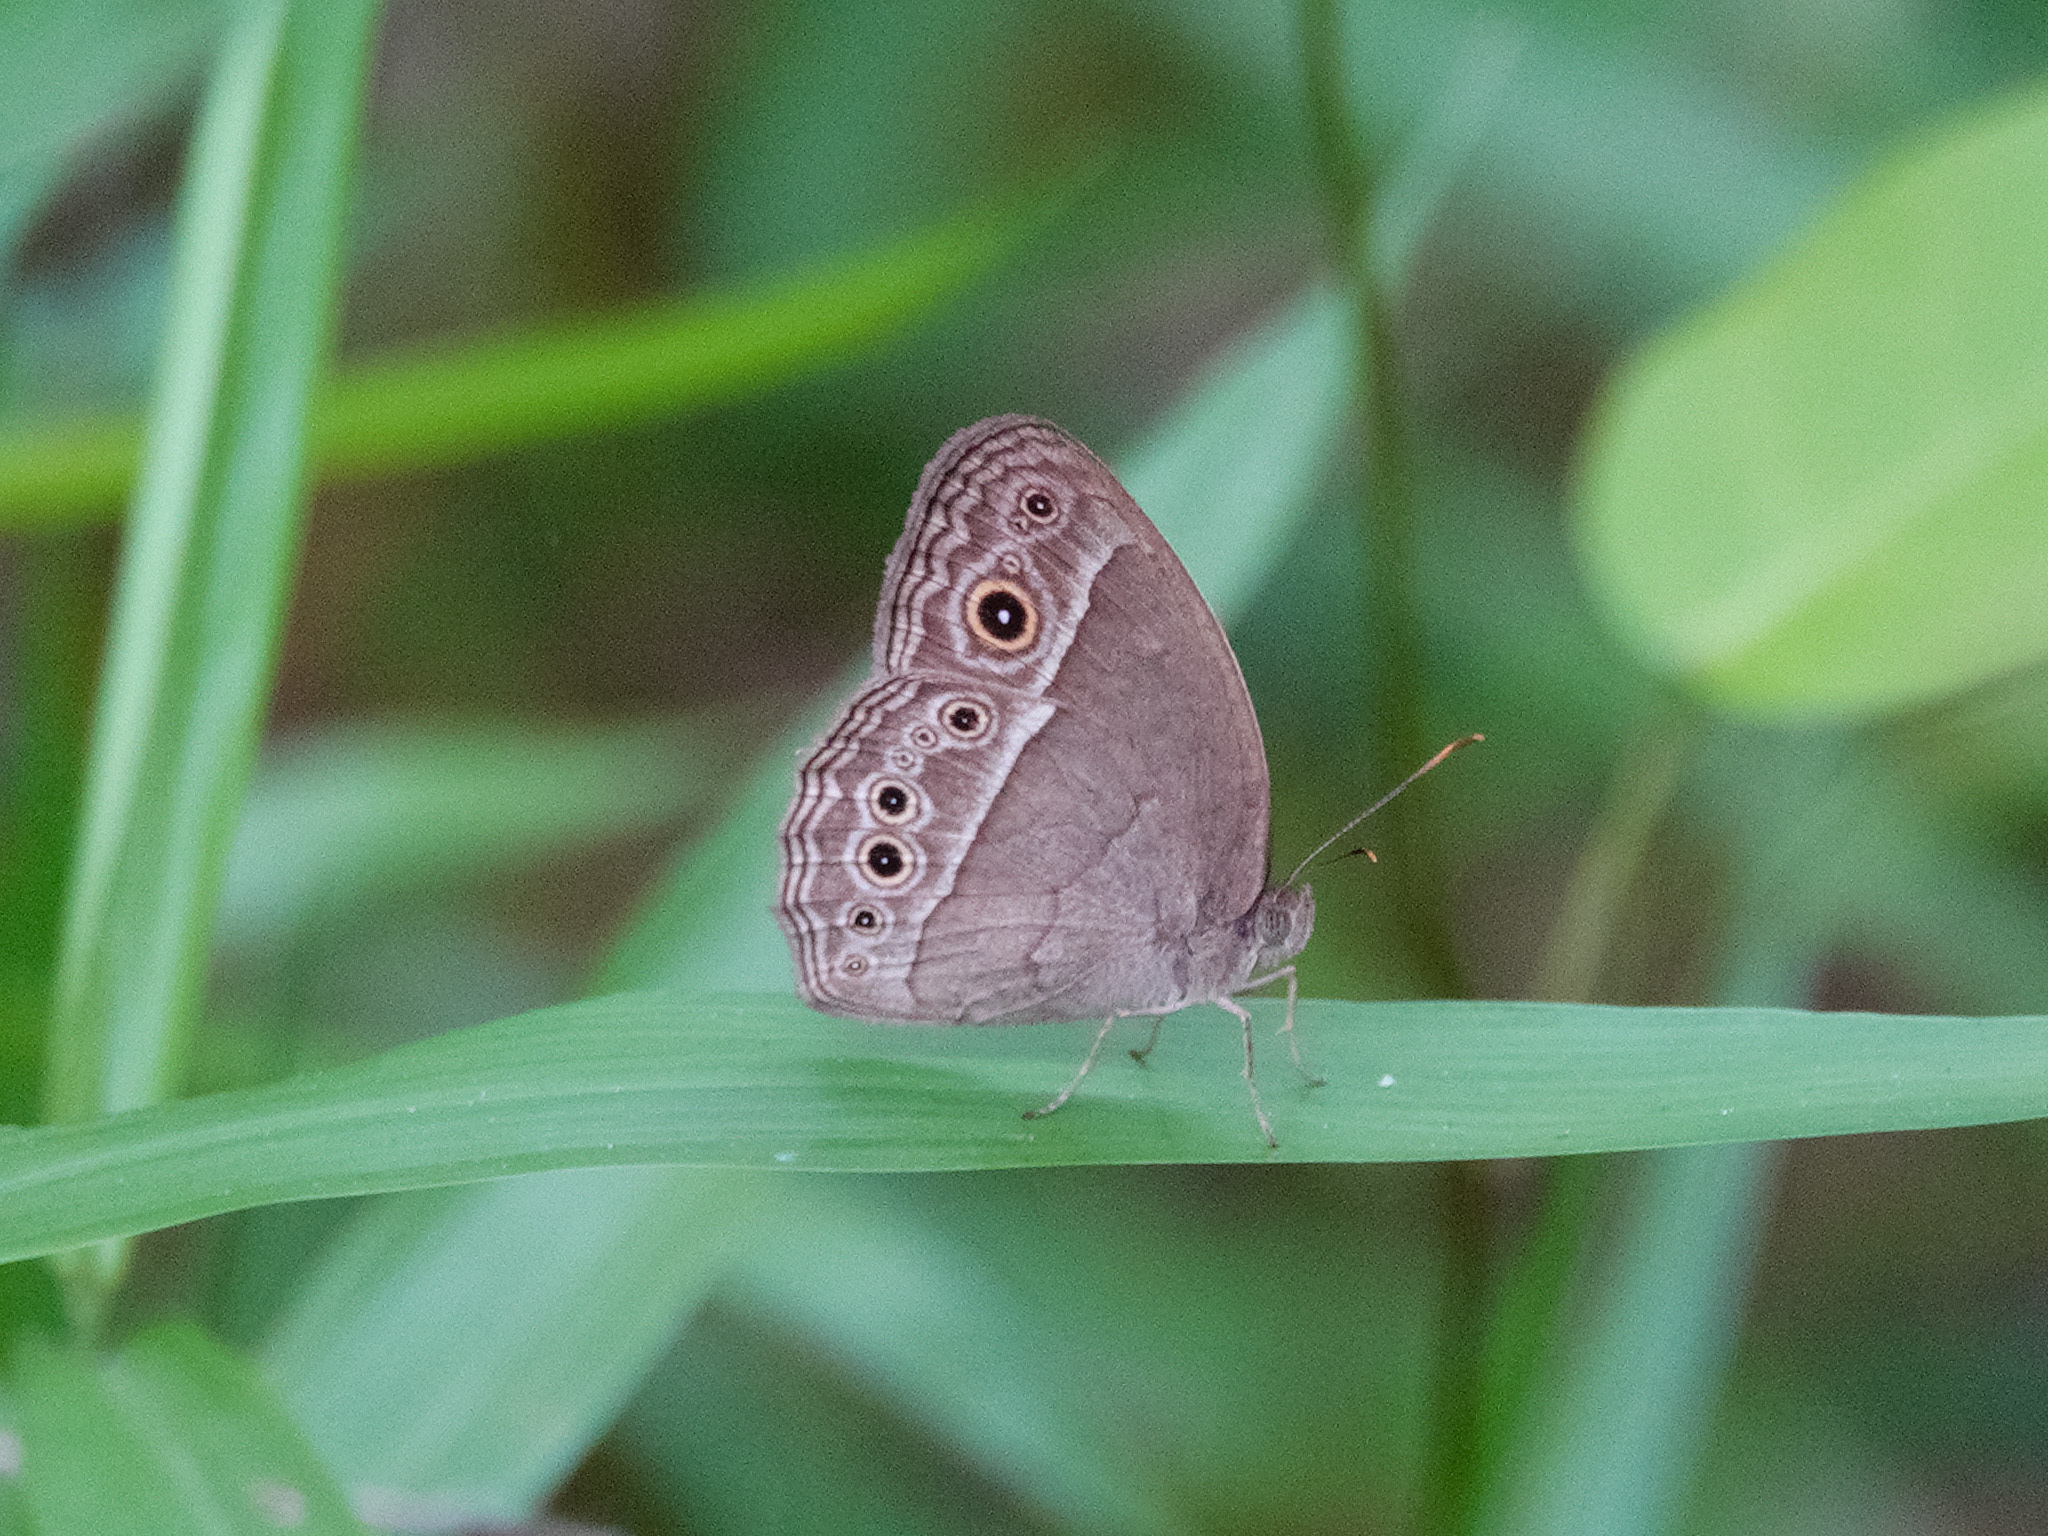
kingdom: Animalia
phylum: Arthropoda
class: Insecta
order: Lepidoptera
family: Nymphalidae
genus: Mycalesis
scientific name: Mycalesis perseoides
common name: Burmese bushbrown
